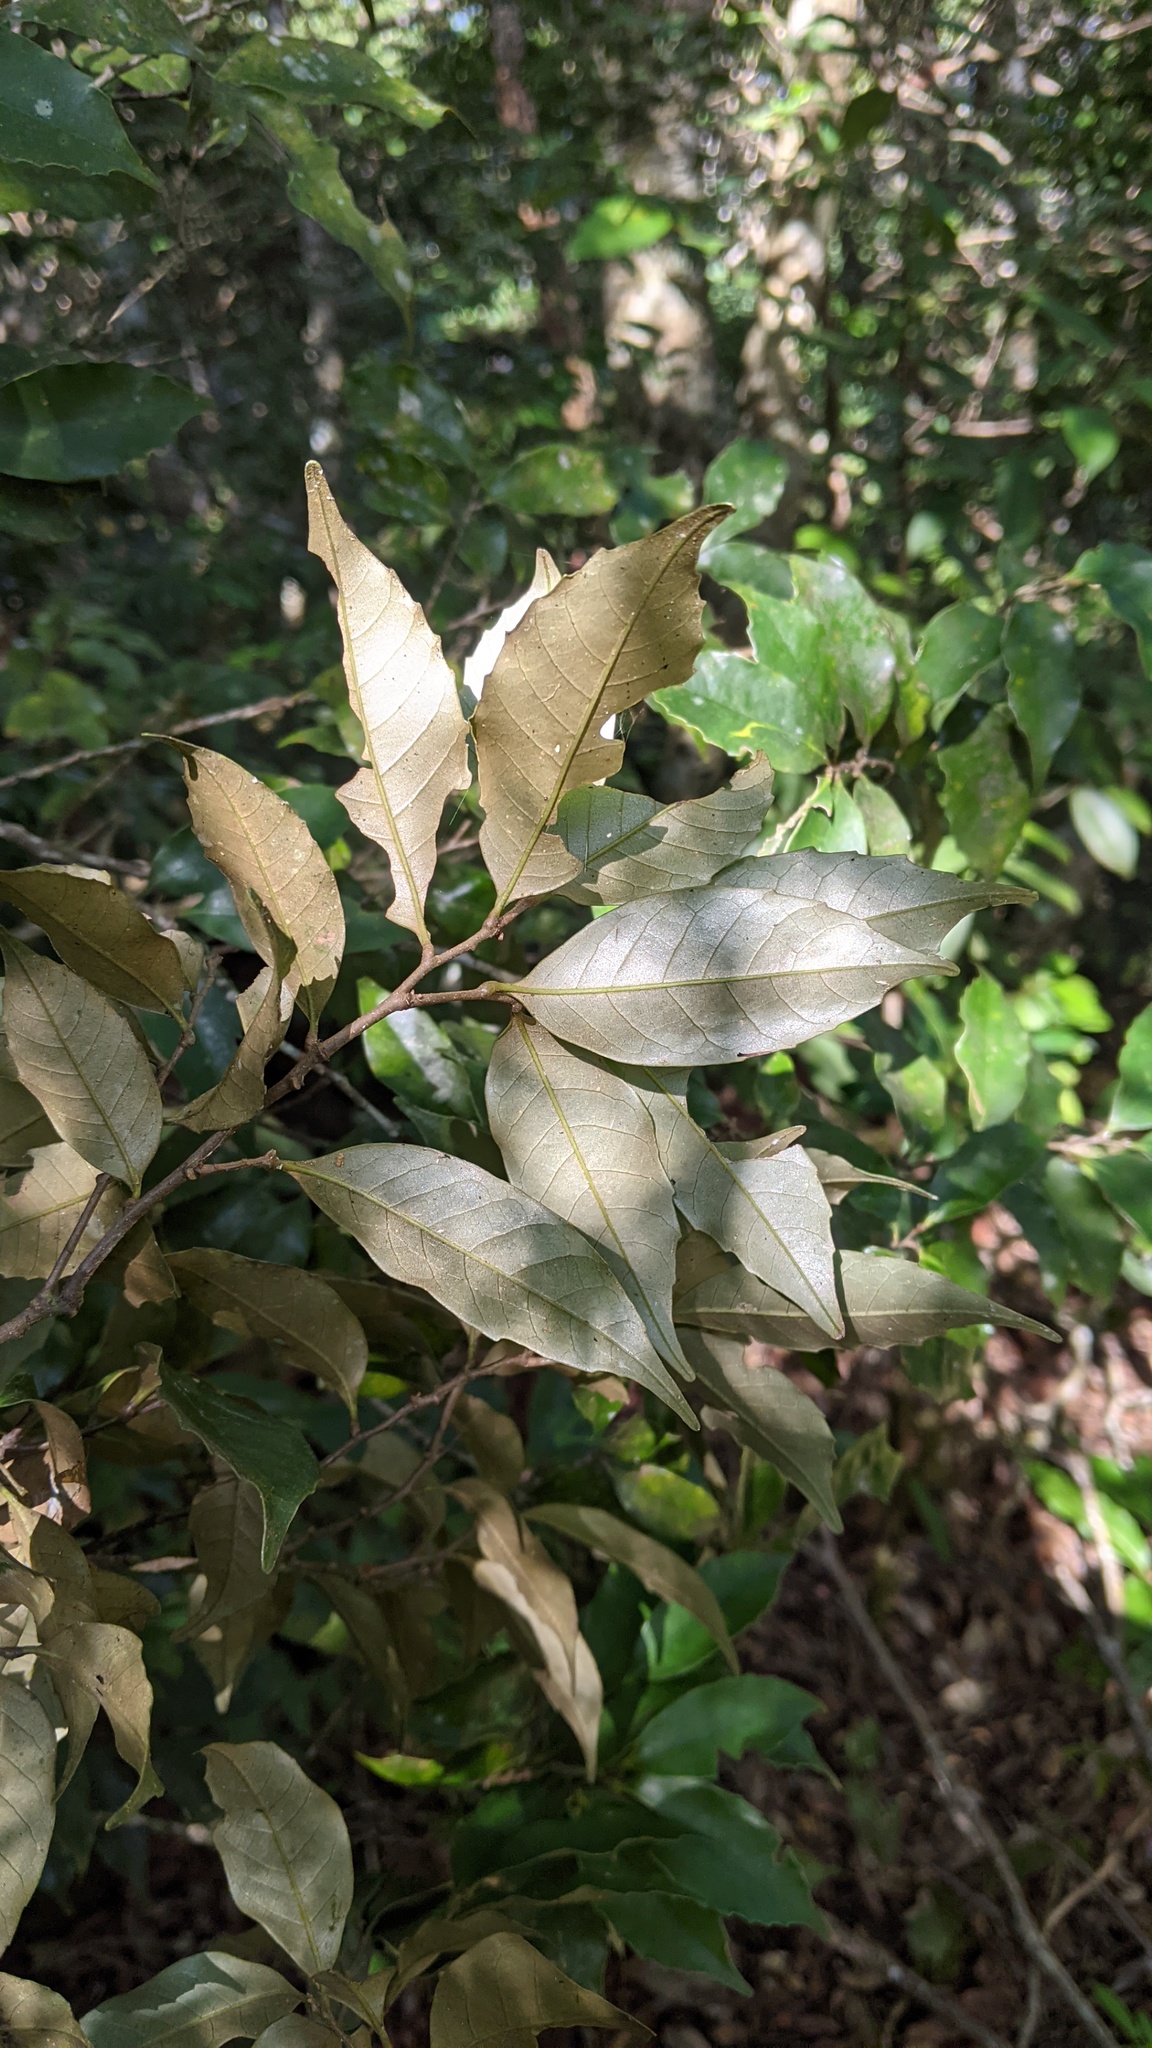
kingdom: Plantae
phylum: Tracheophyta
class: Magnoliopsida
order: Fagales
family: Fagaceae
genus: Castanopsis
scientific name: Castanopsis carlesii
